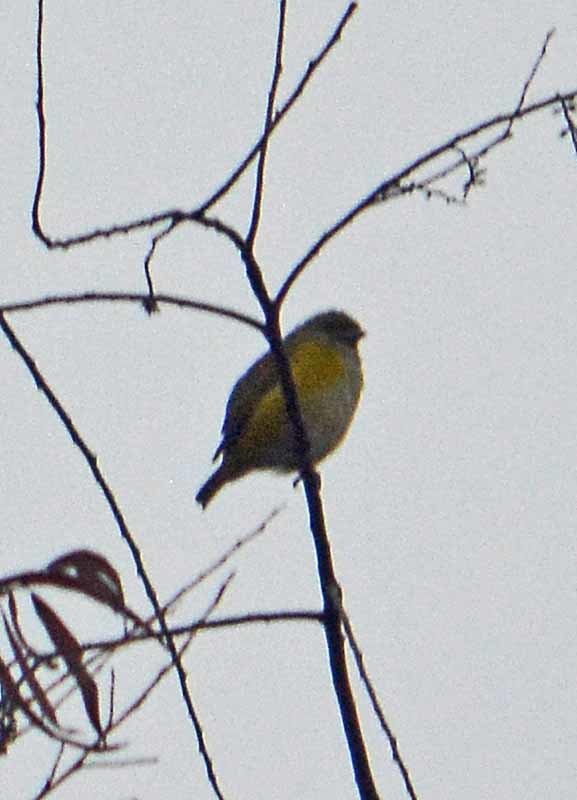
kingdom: Animalia
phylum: Chordata
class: Aves
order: Passeriformes
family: Fringillidae
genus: Euphonia
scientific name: Euphonia hirundinacea
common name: Yellow-throated euphonia
